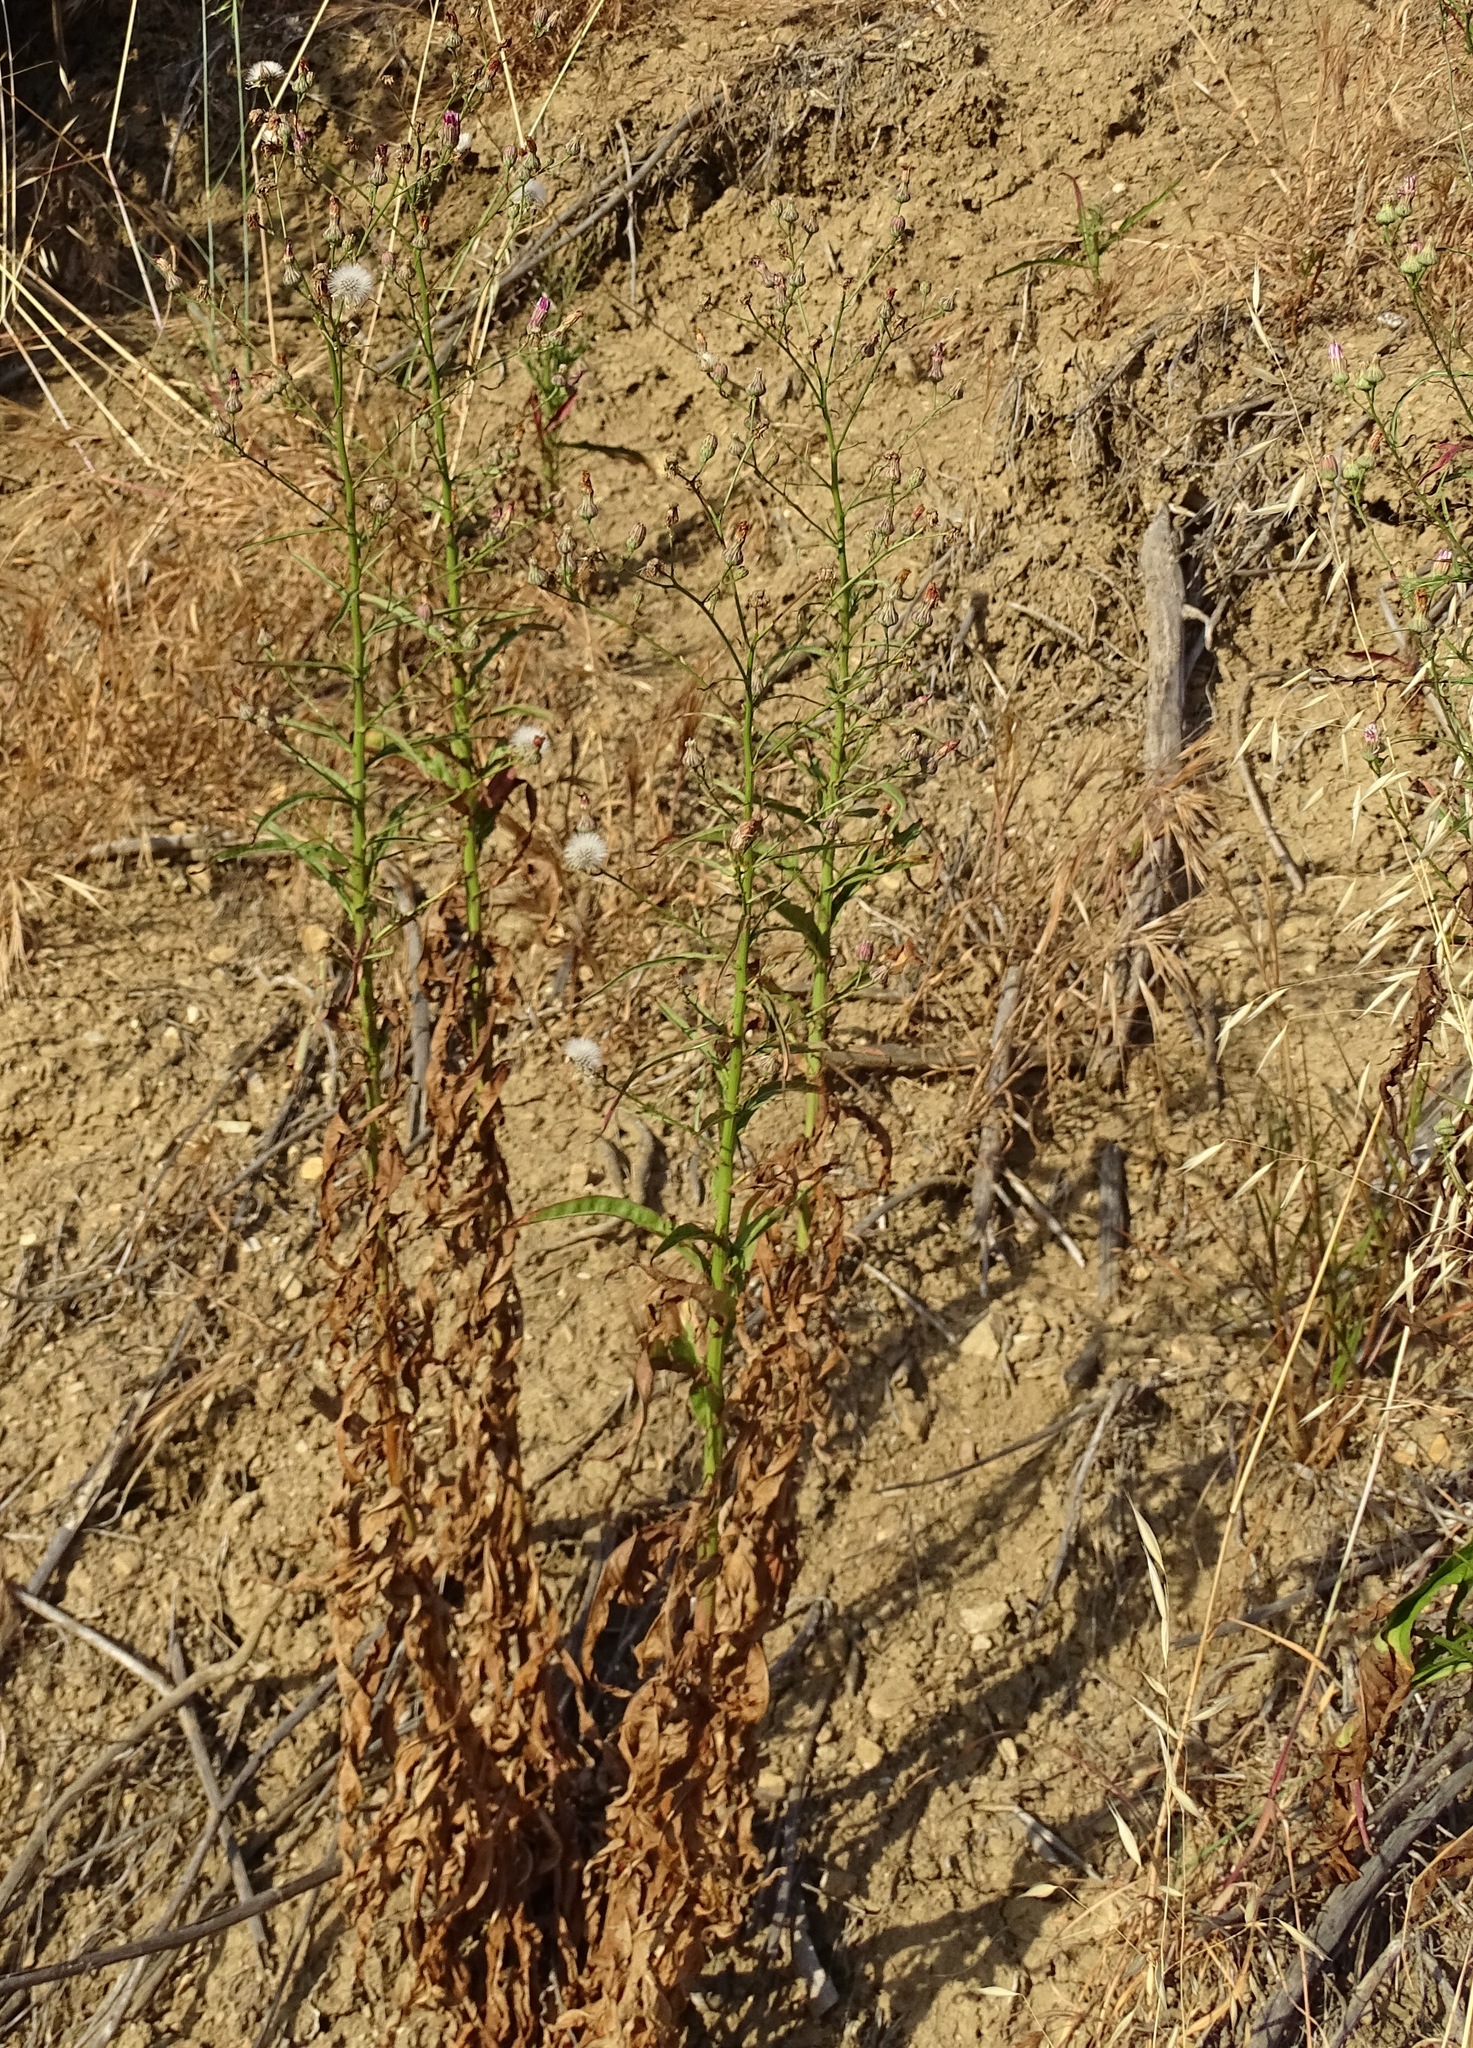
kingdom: Plantae
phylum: Tracheophyta
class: Magnoliopsida
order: Asterales
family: Asteraceae
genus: Malacothrix
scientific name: Malacothrix saxatilis
